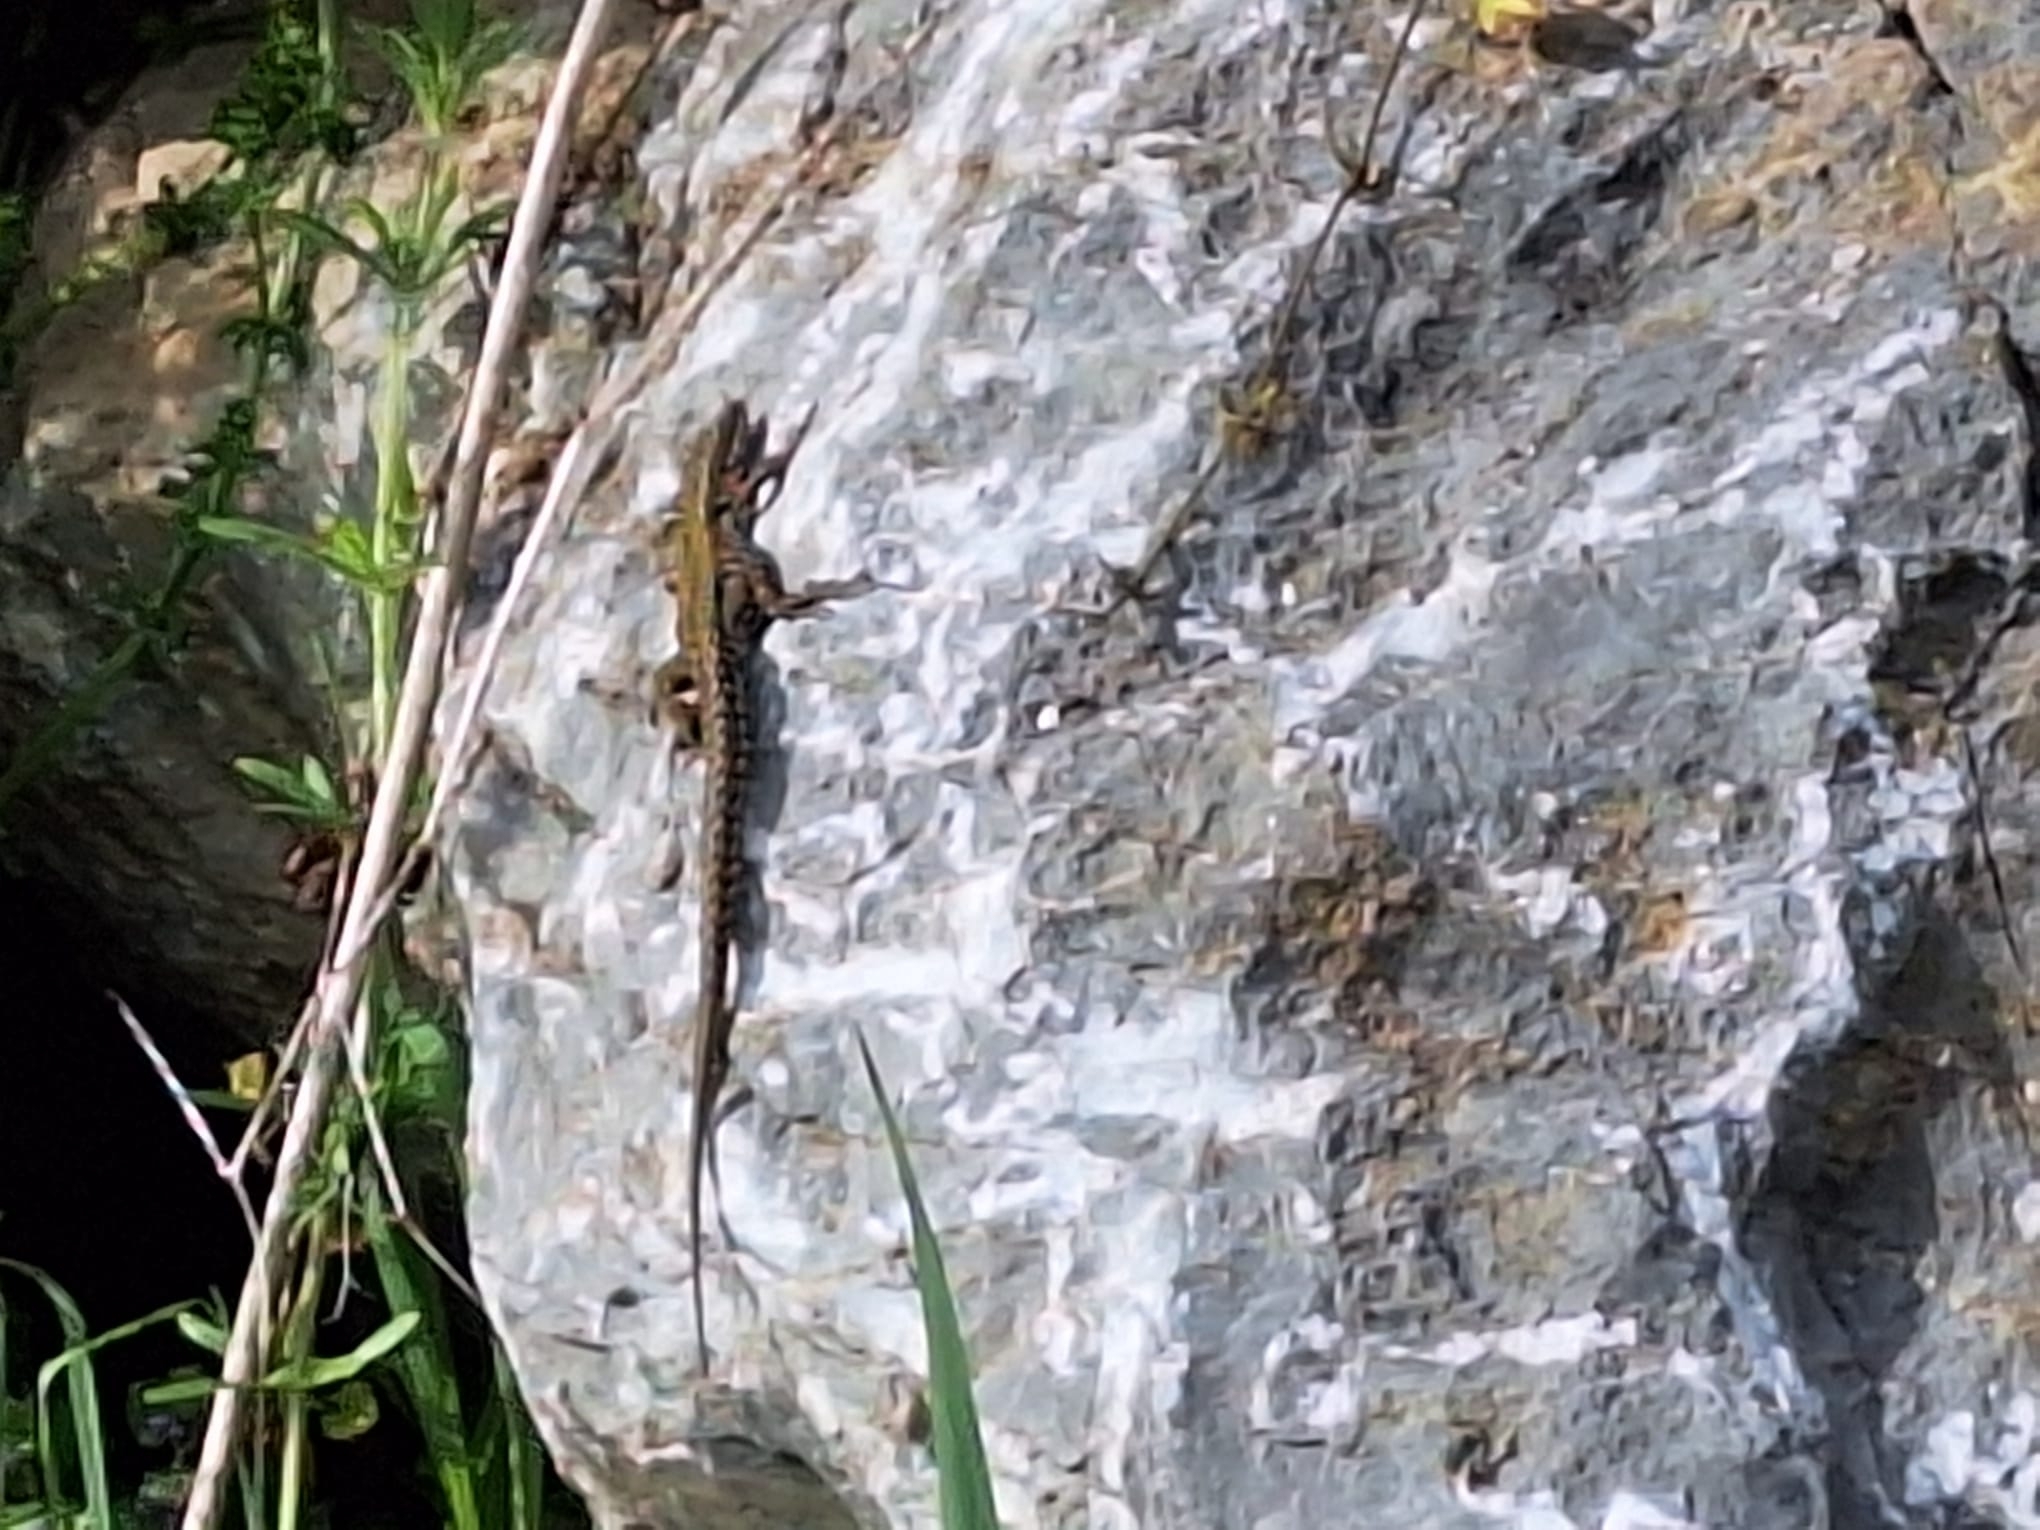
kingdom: Animalia
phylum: Chordata
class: Squamata
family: Lacertidae
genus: Podarcis
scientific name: Podarcis muralis
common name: Common wall lizard
